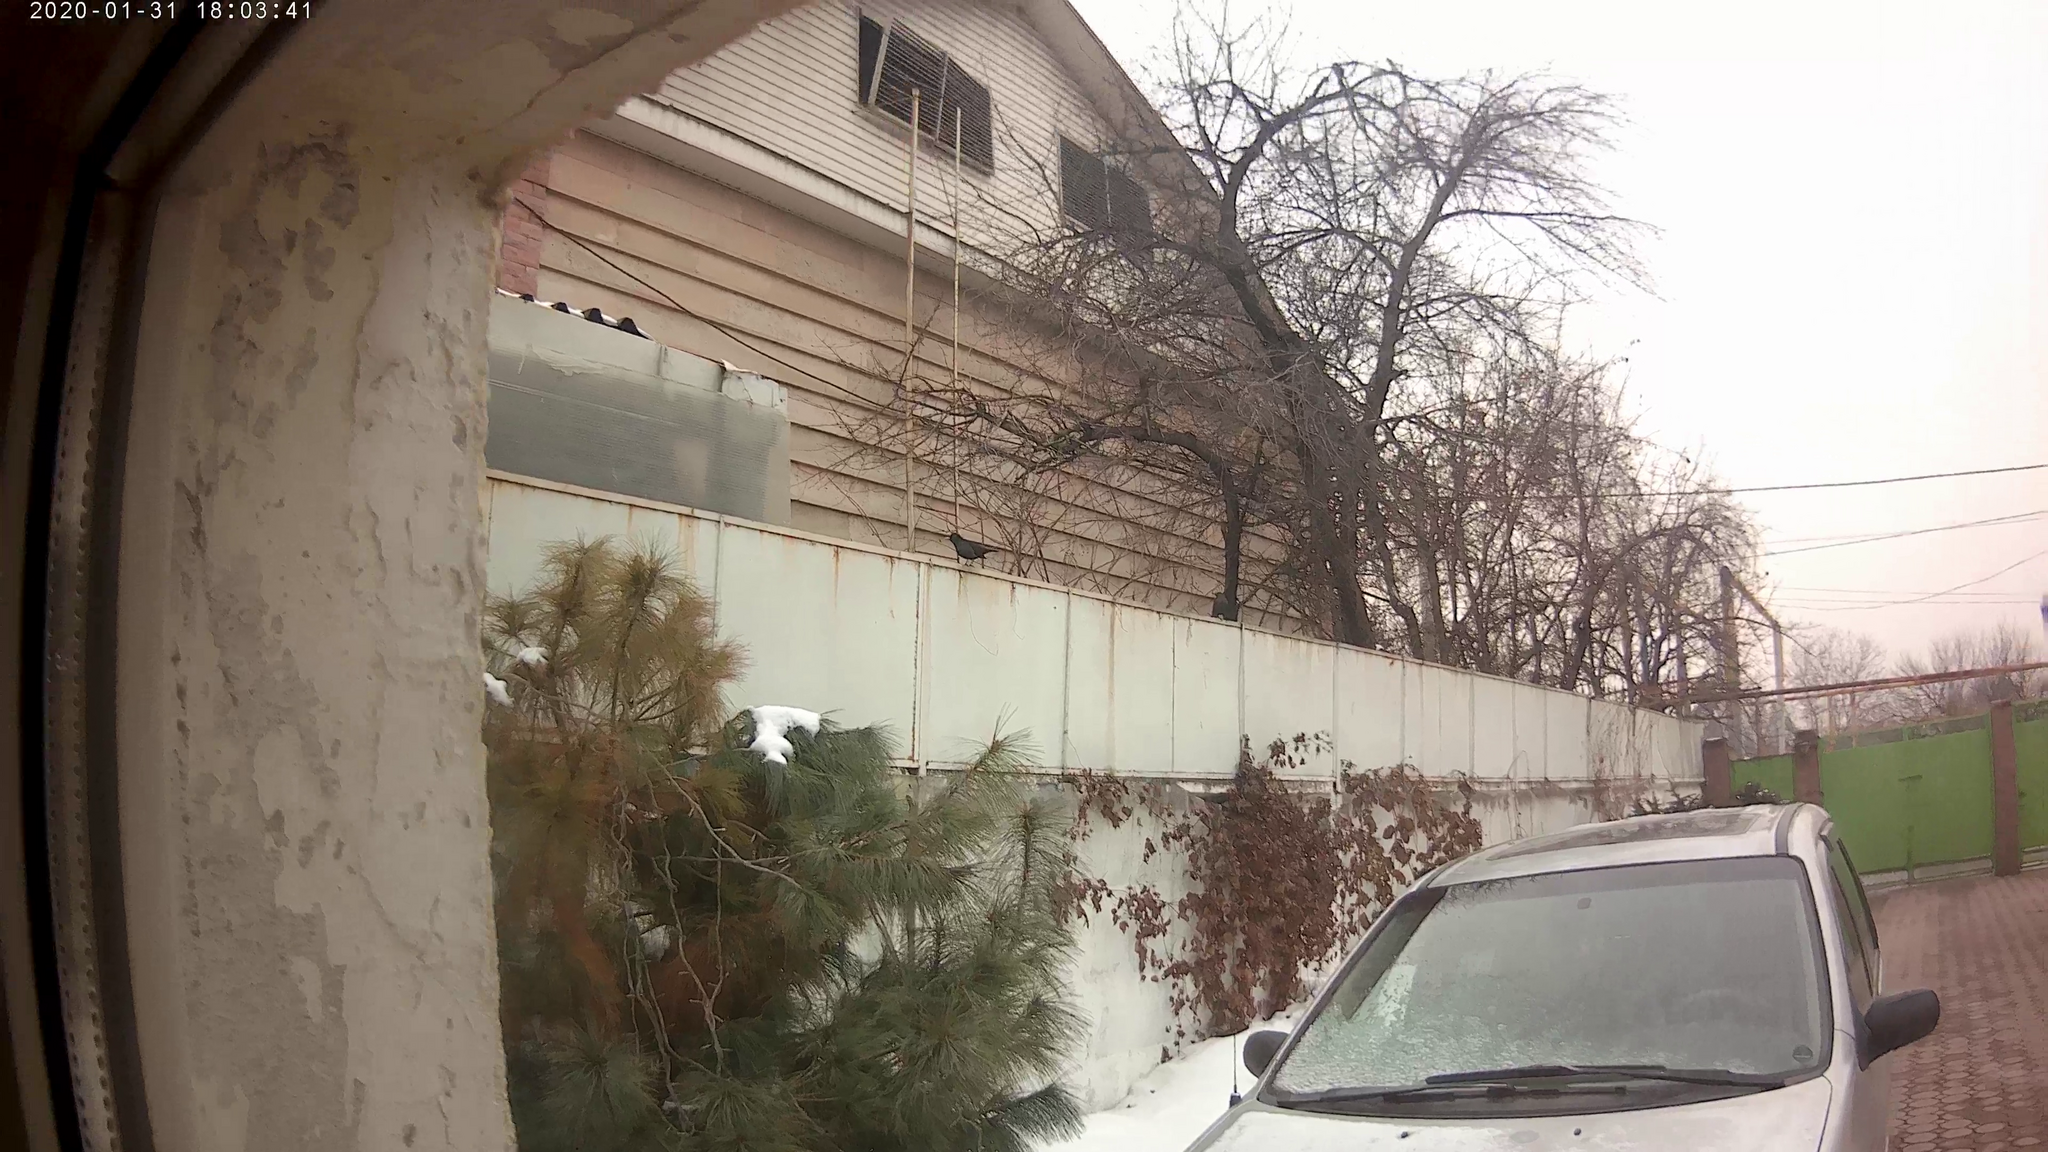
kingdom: Animalia
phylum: Chordata
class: Aves
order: Passeriformes
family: Turdidae
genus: Turdus
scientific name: Turdus merula
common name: Common blackbird
